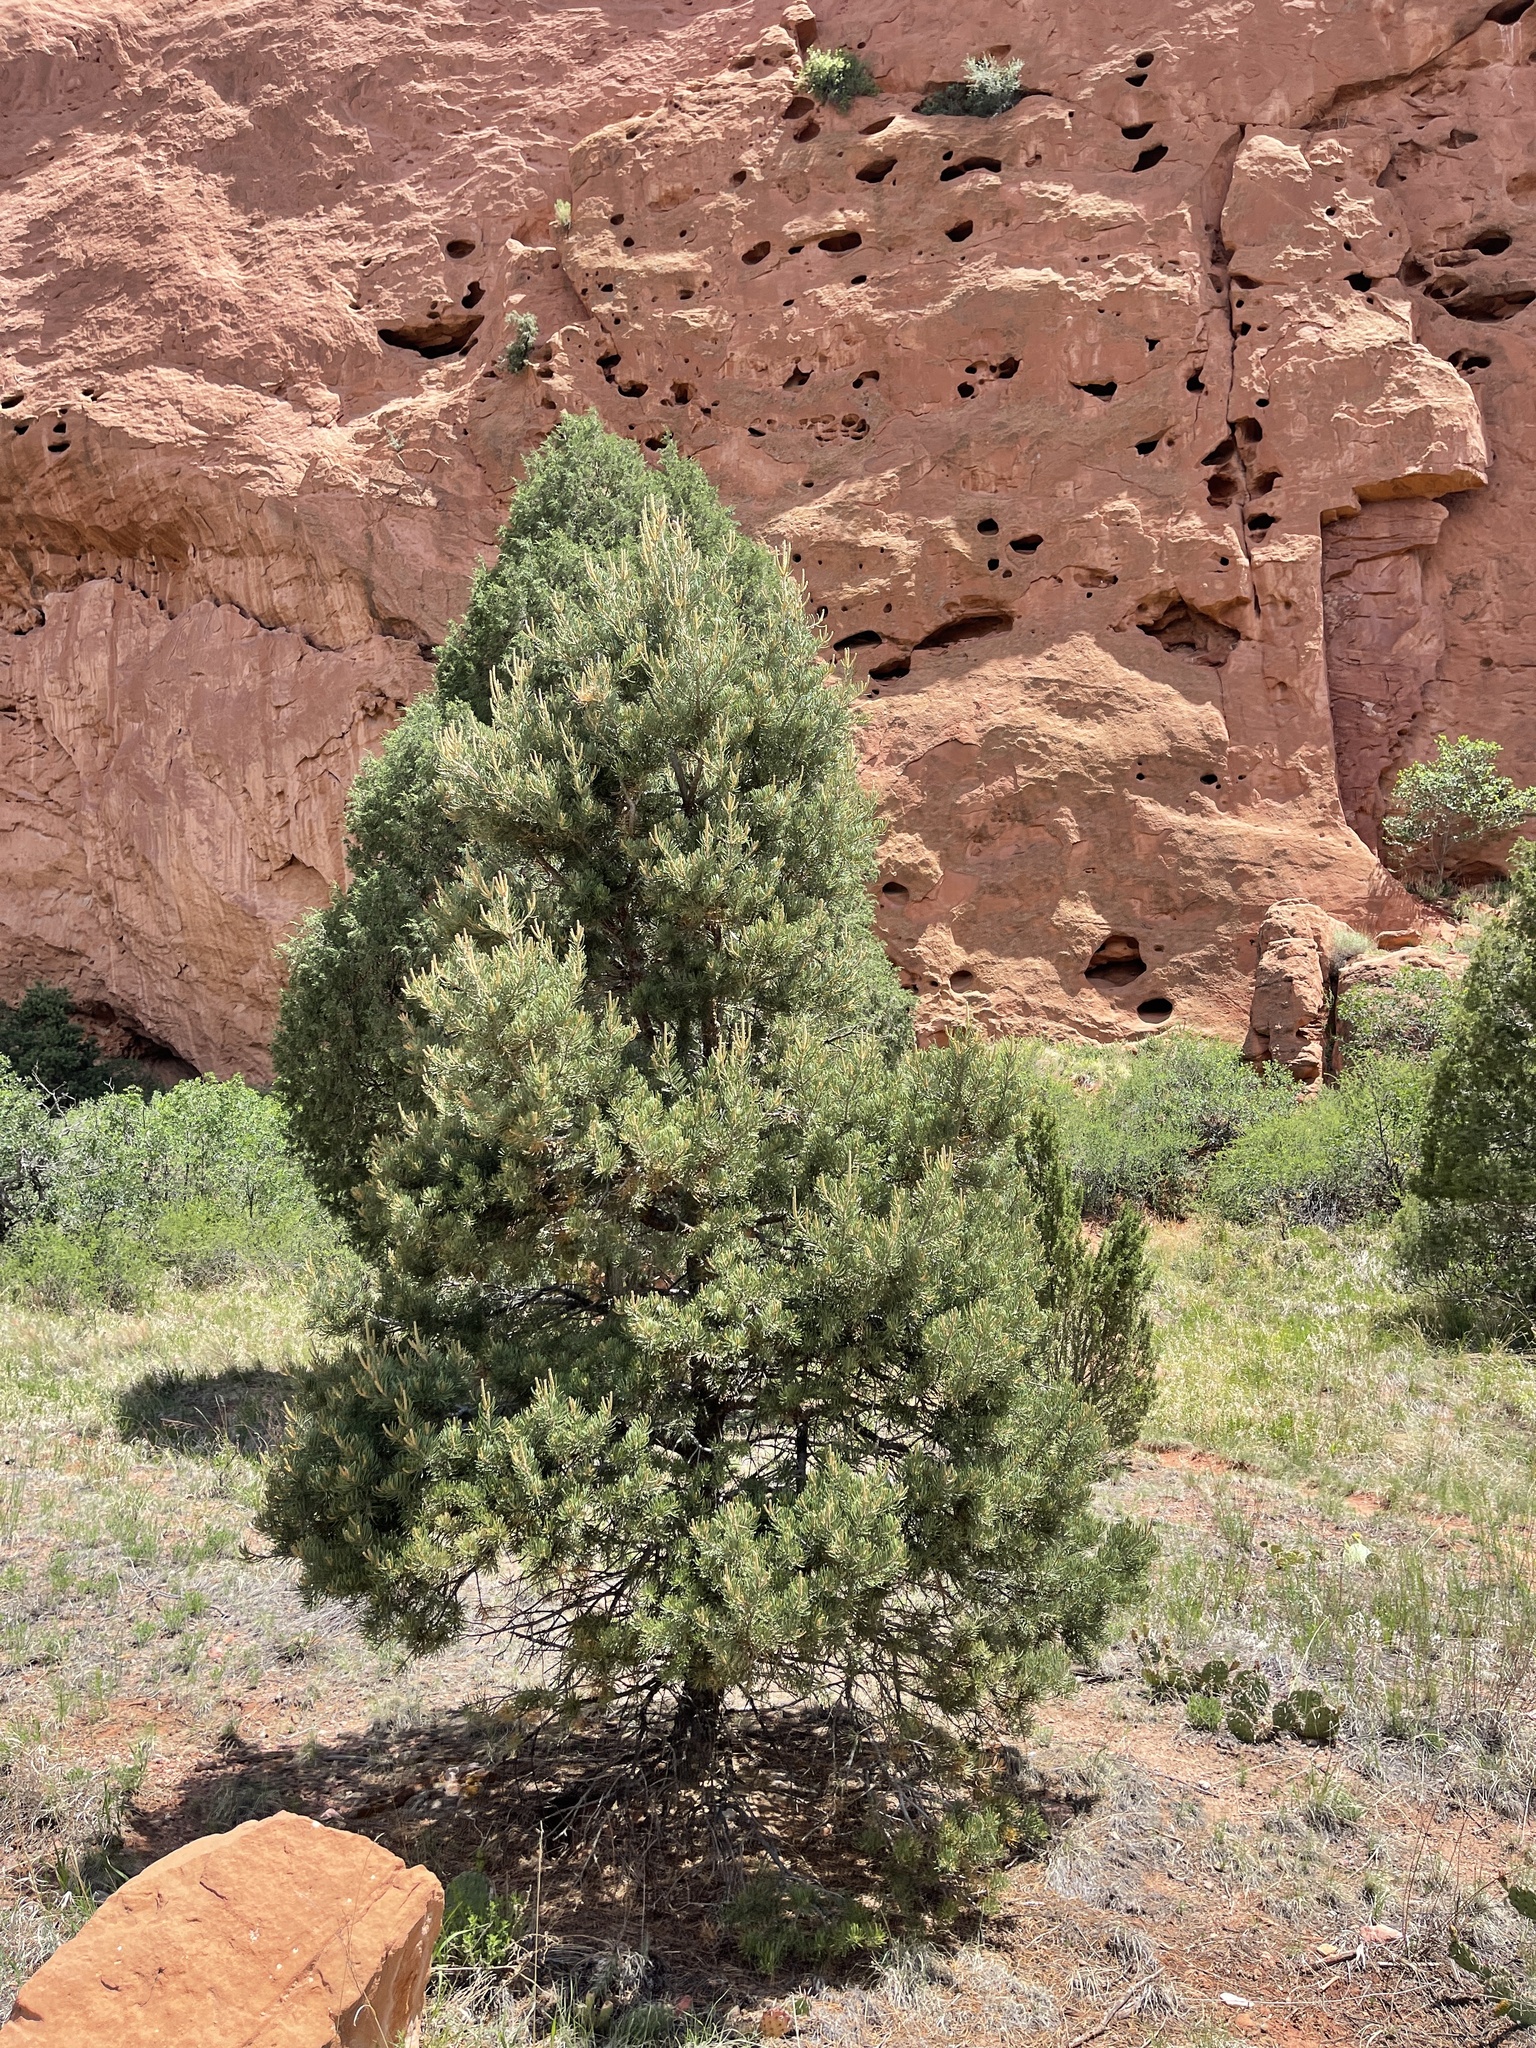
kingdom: Plantae
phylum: Tracheophyta
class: Pinopsida
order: Pinales
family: Pinaceae
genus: Pinus
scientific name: Pinus edulis
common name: Colorado pinyon
